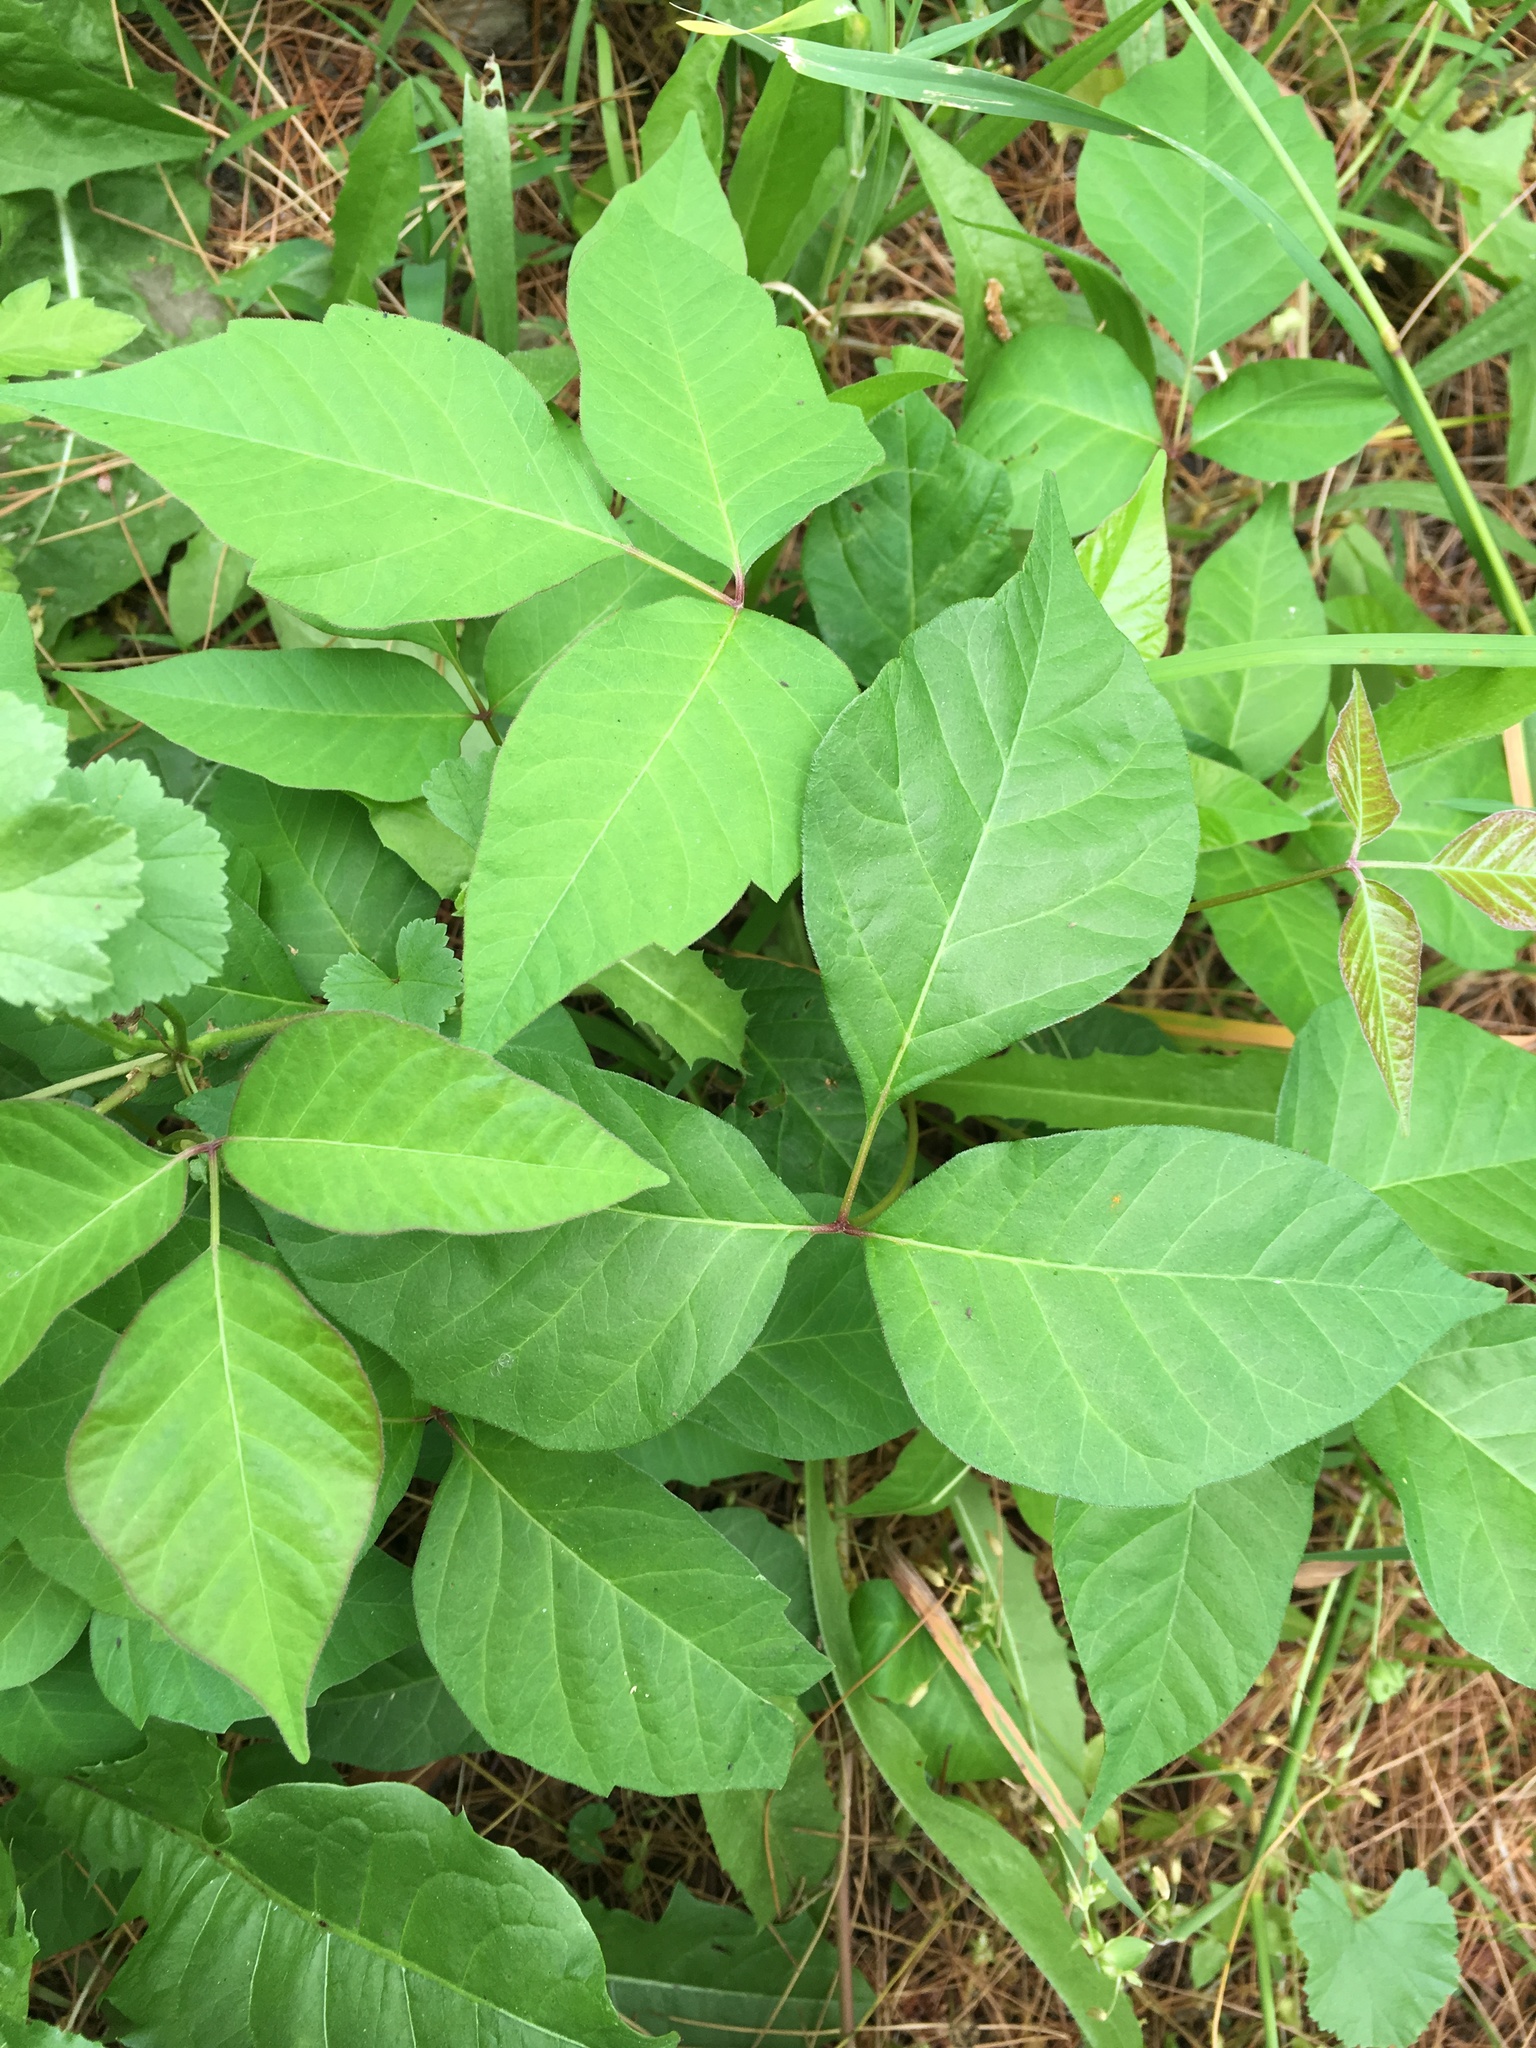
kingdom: Plantae
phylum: Tracheophyta
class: Magnoliopsida
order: Sapindales
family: Anacardiaceae
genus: Toxicodendron
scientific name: Toxicodendron radicans
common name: Poison ivy
